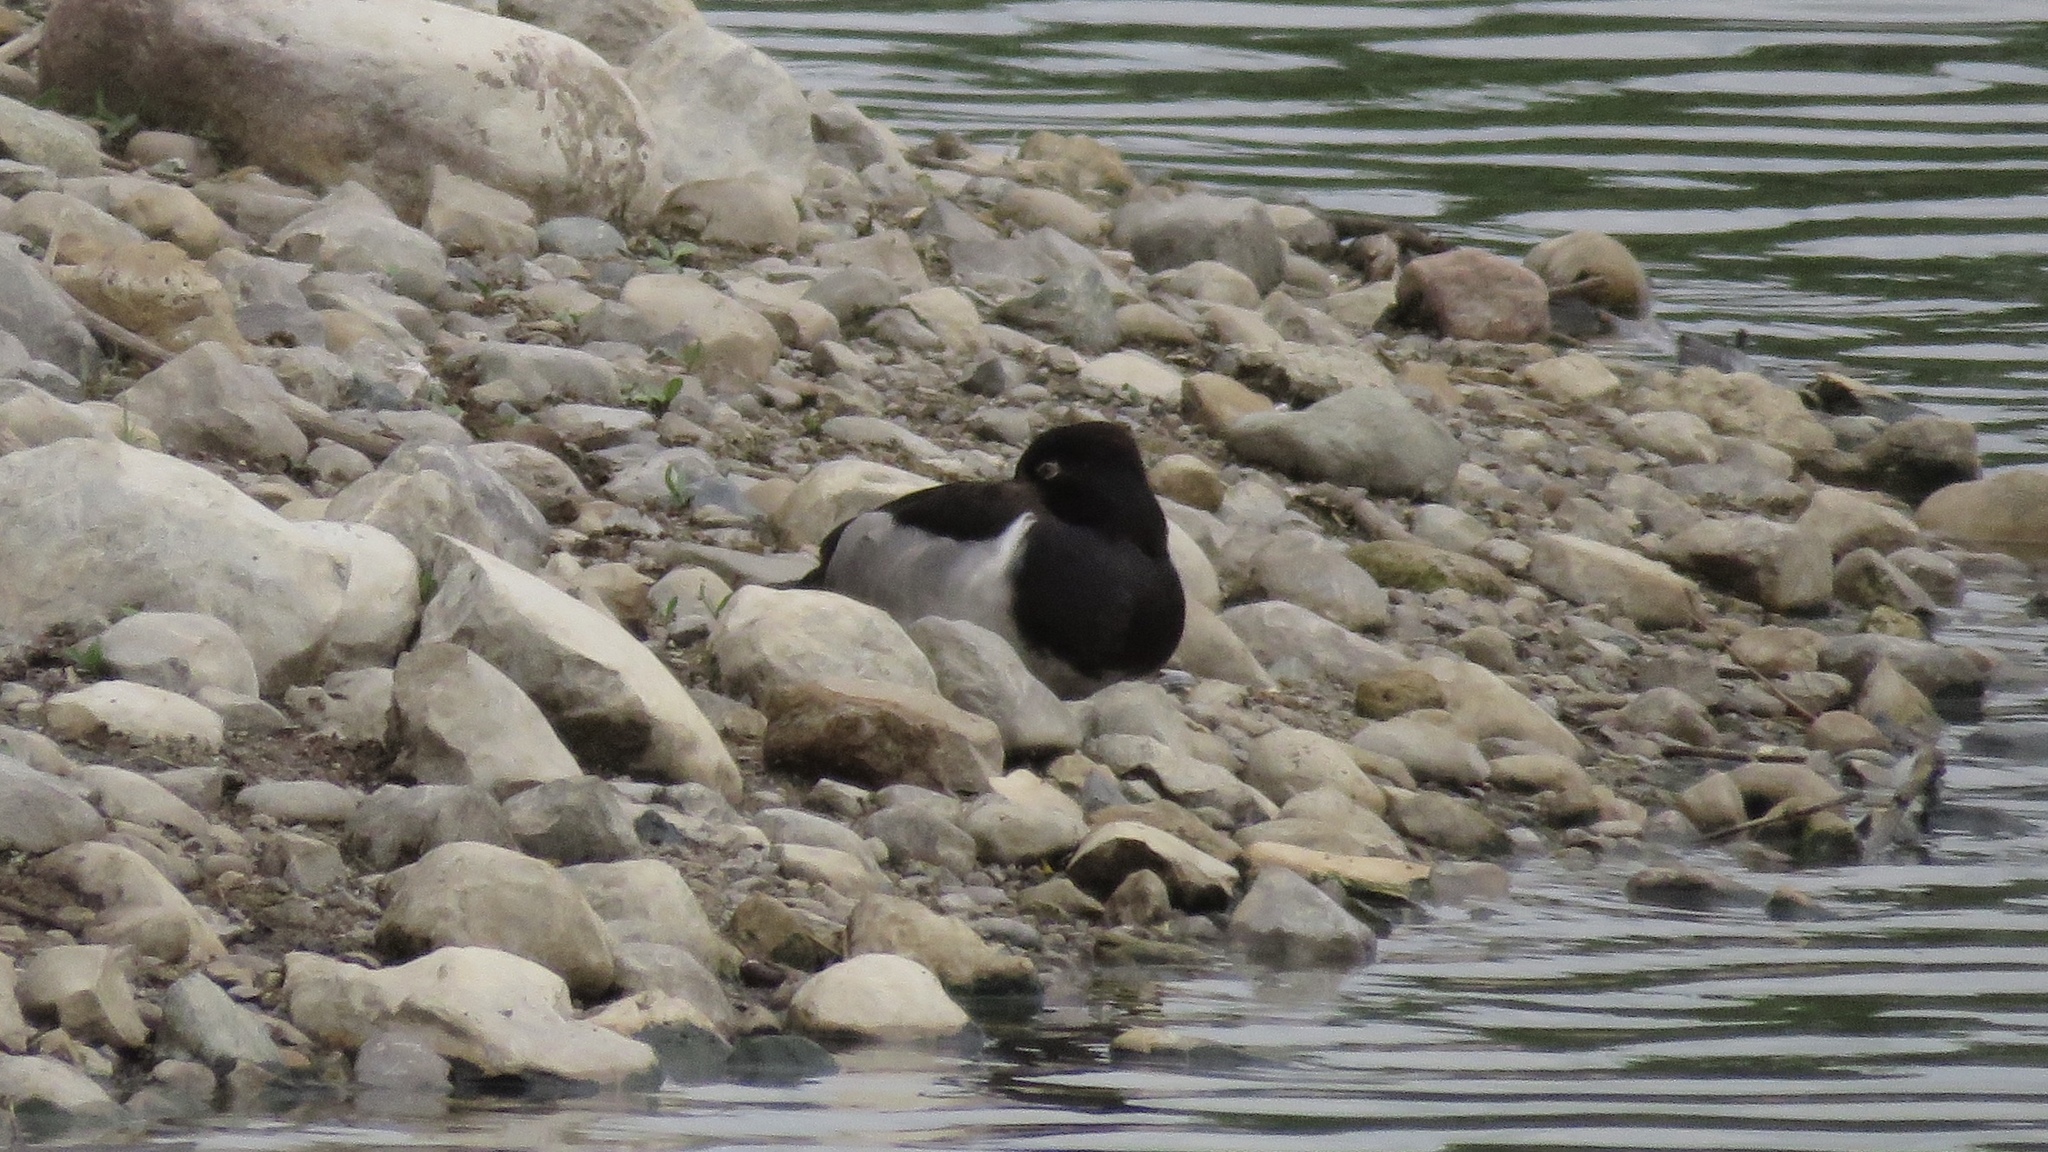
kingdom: Animalia
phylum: Chordata
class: Aves
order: Anseriformes
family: Anatidae
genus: Aythya
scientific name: Aythya collaris
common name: Ring-necked duck
